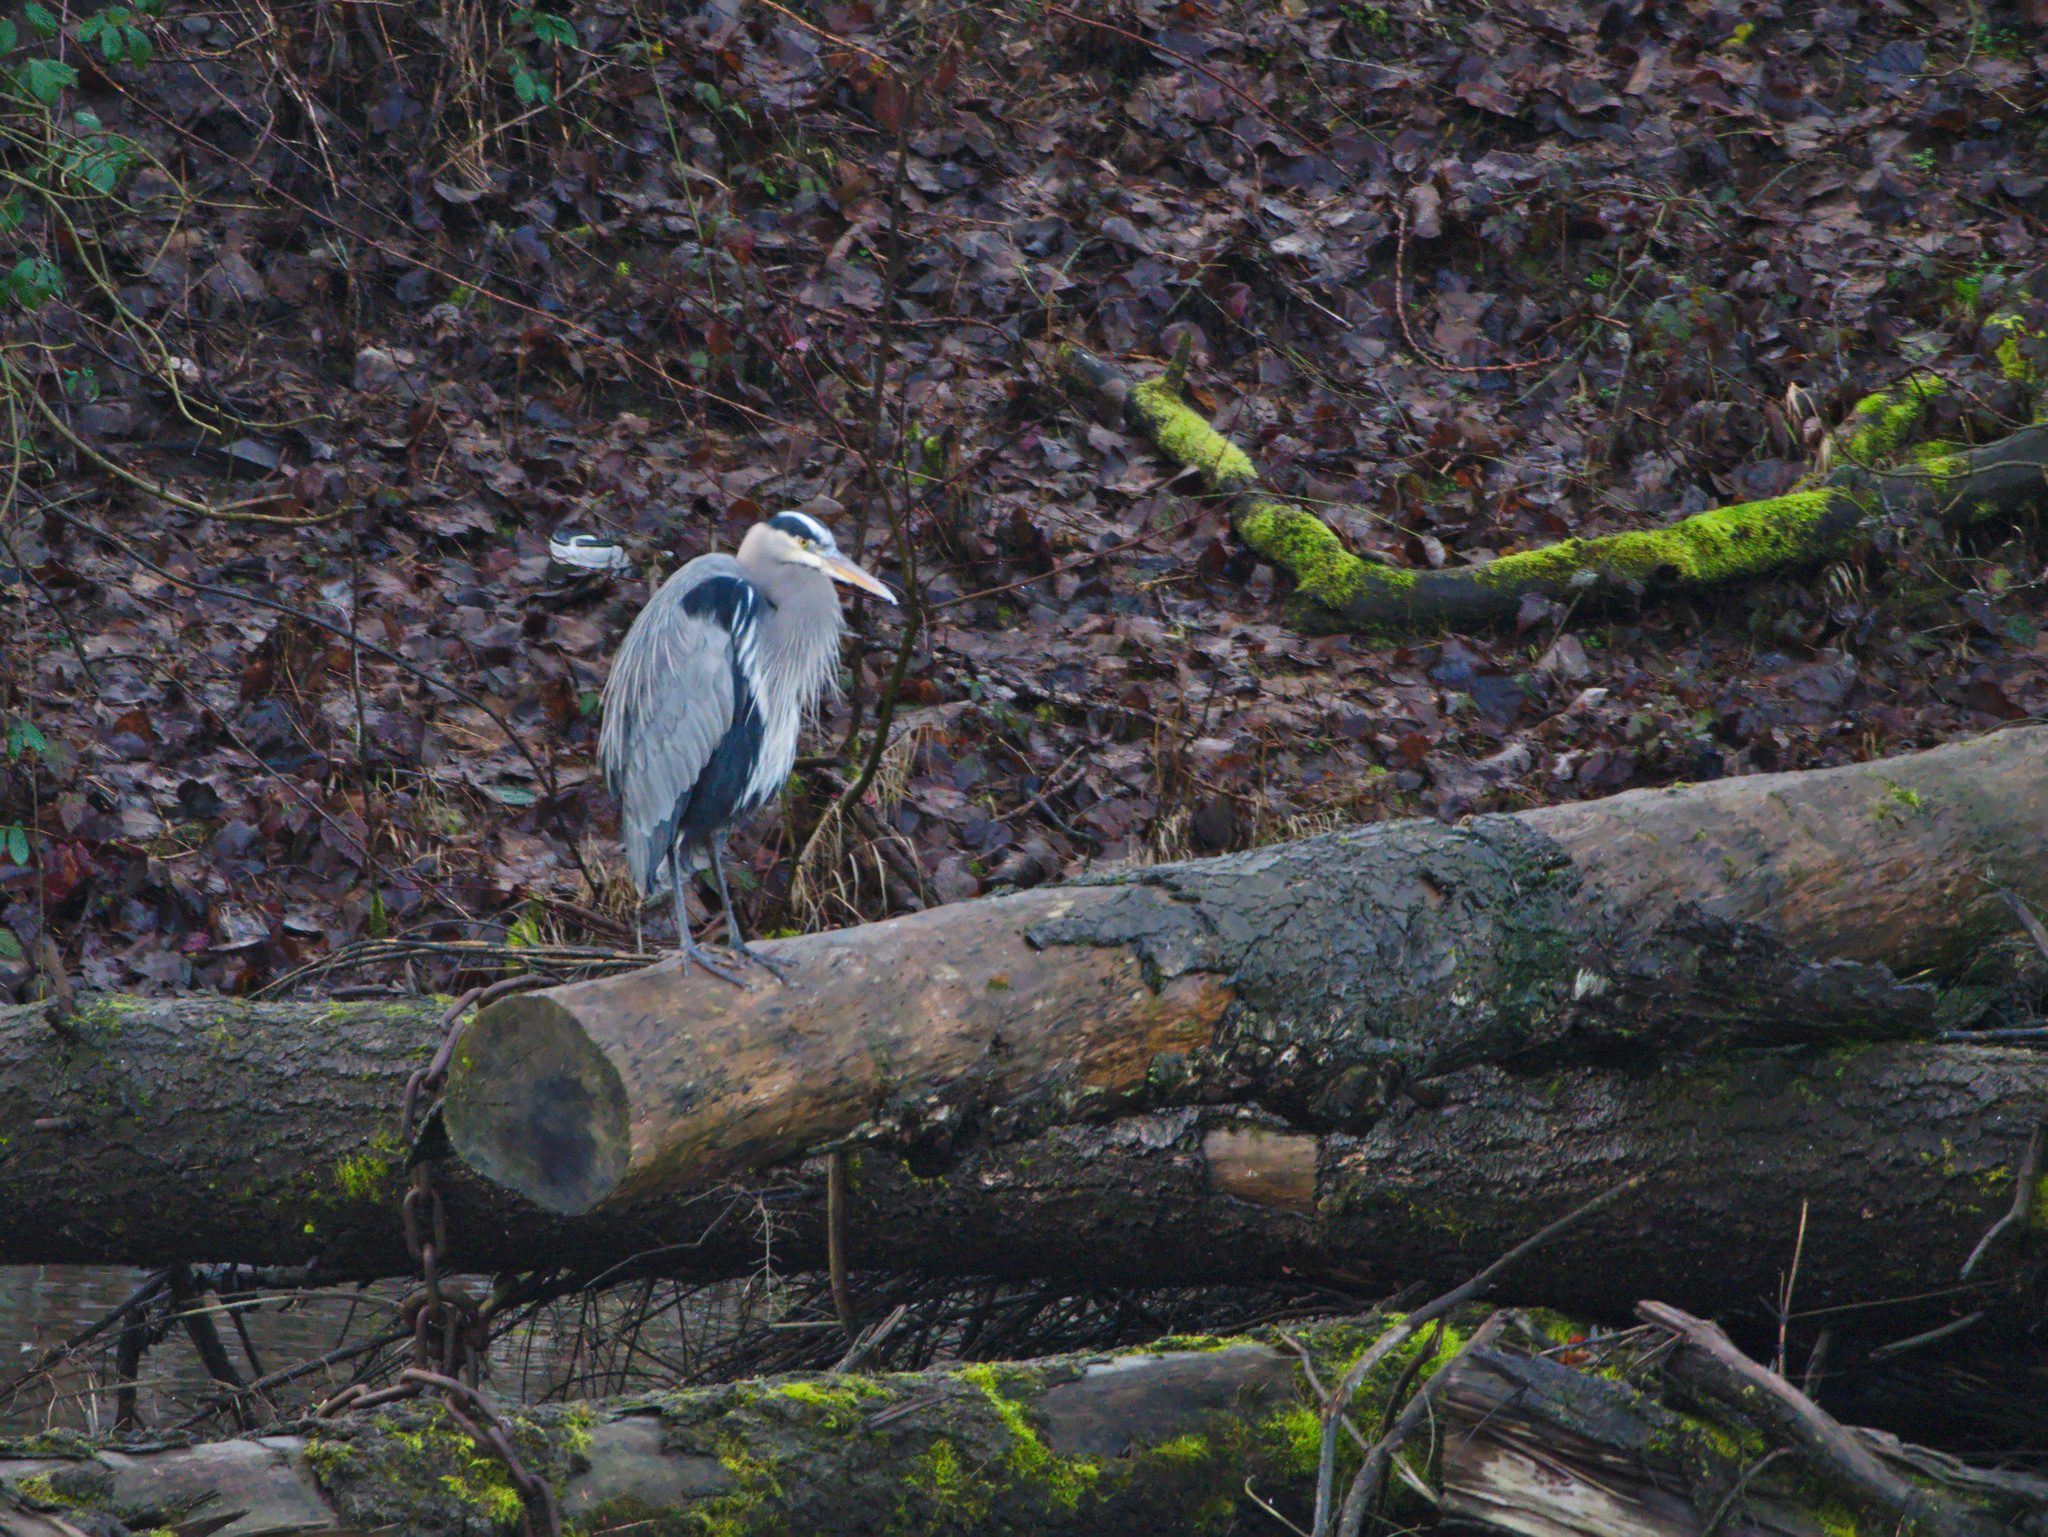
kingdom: Animalia
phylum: Chordata
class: Aves
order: Pelecaniformes
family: Ardeidae
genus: Ardea
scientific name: Ardea herodias
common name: Great blue heron
